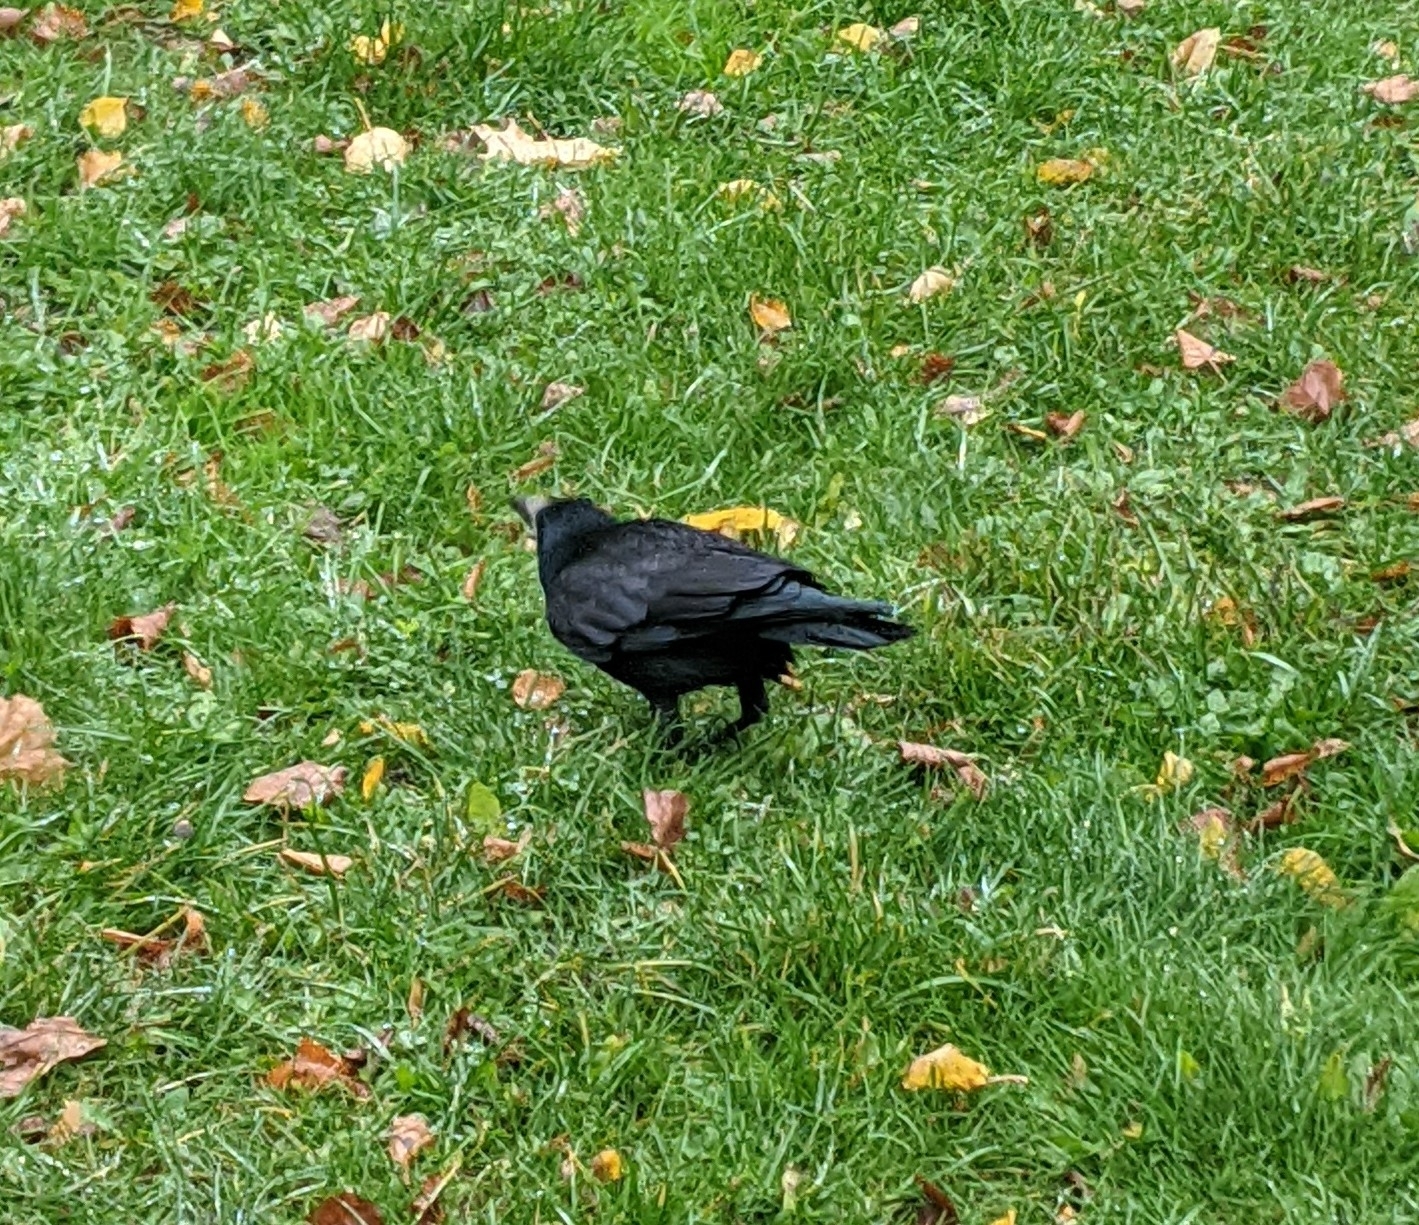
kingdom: Animalia
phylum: Chordata
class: Aves
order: Passeriformes
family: Corvidae
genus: Corvus
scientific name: Corvus frugilegus
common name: Rook
